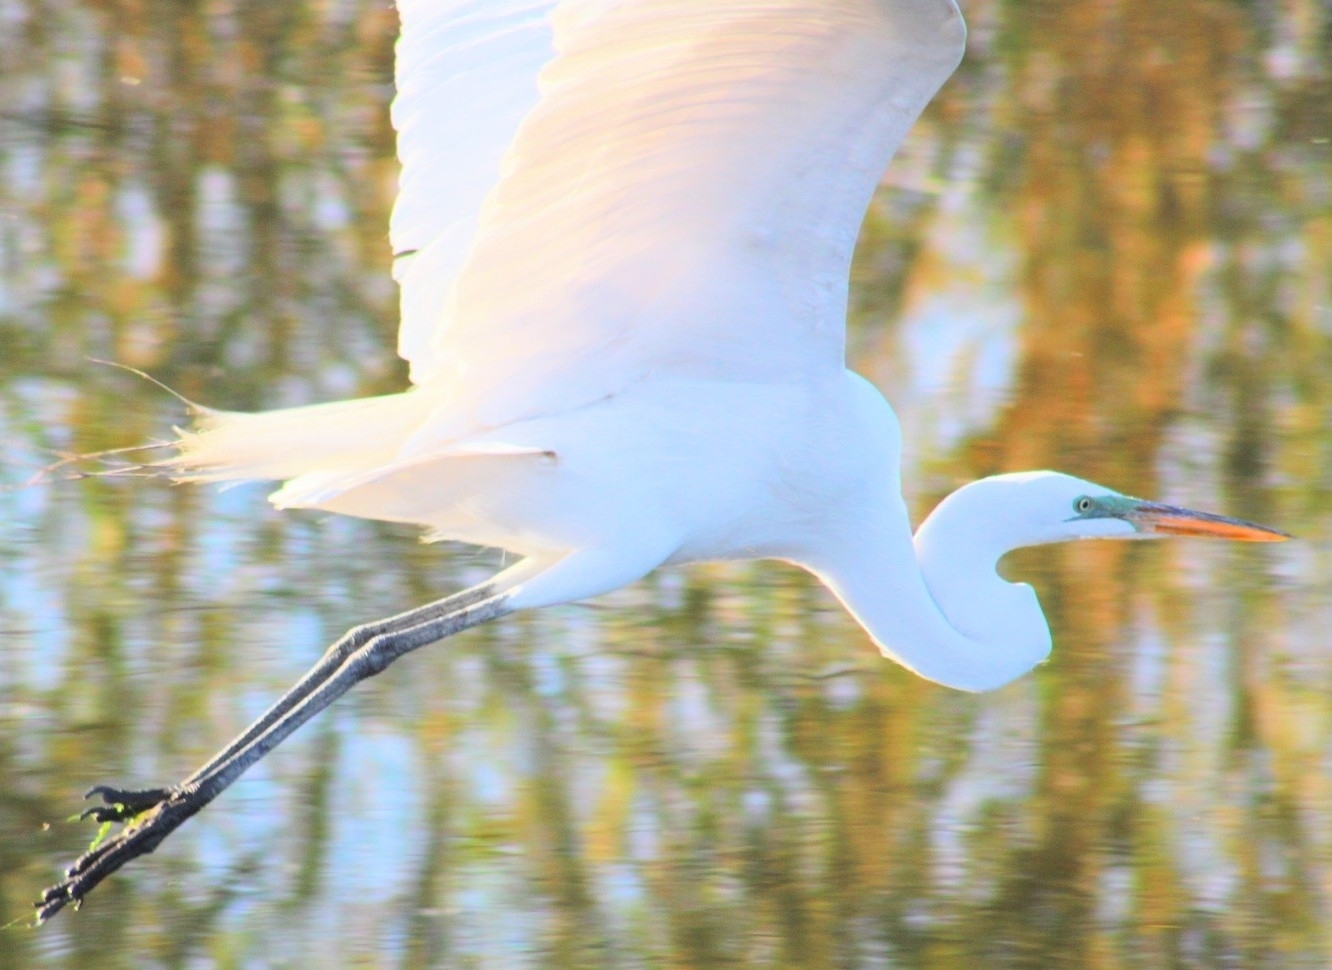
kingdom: Animalia
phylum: Chordata
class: Aves
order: Pelecaniformes
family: Ardeidae
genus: Ardea
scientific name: Ardea alba
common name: Great egret
